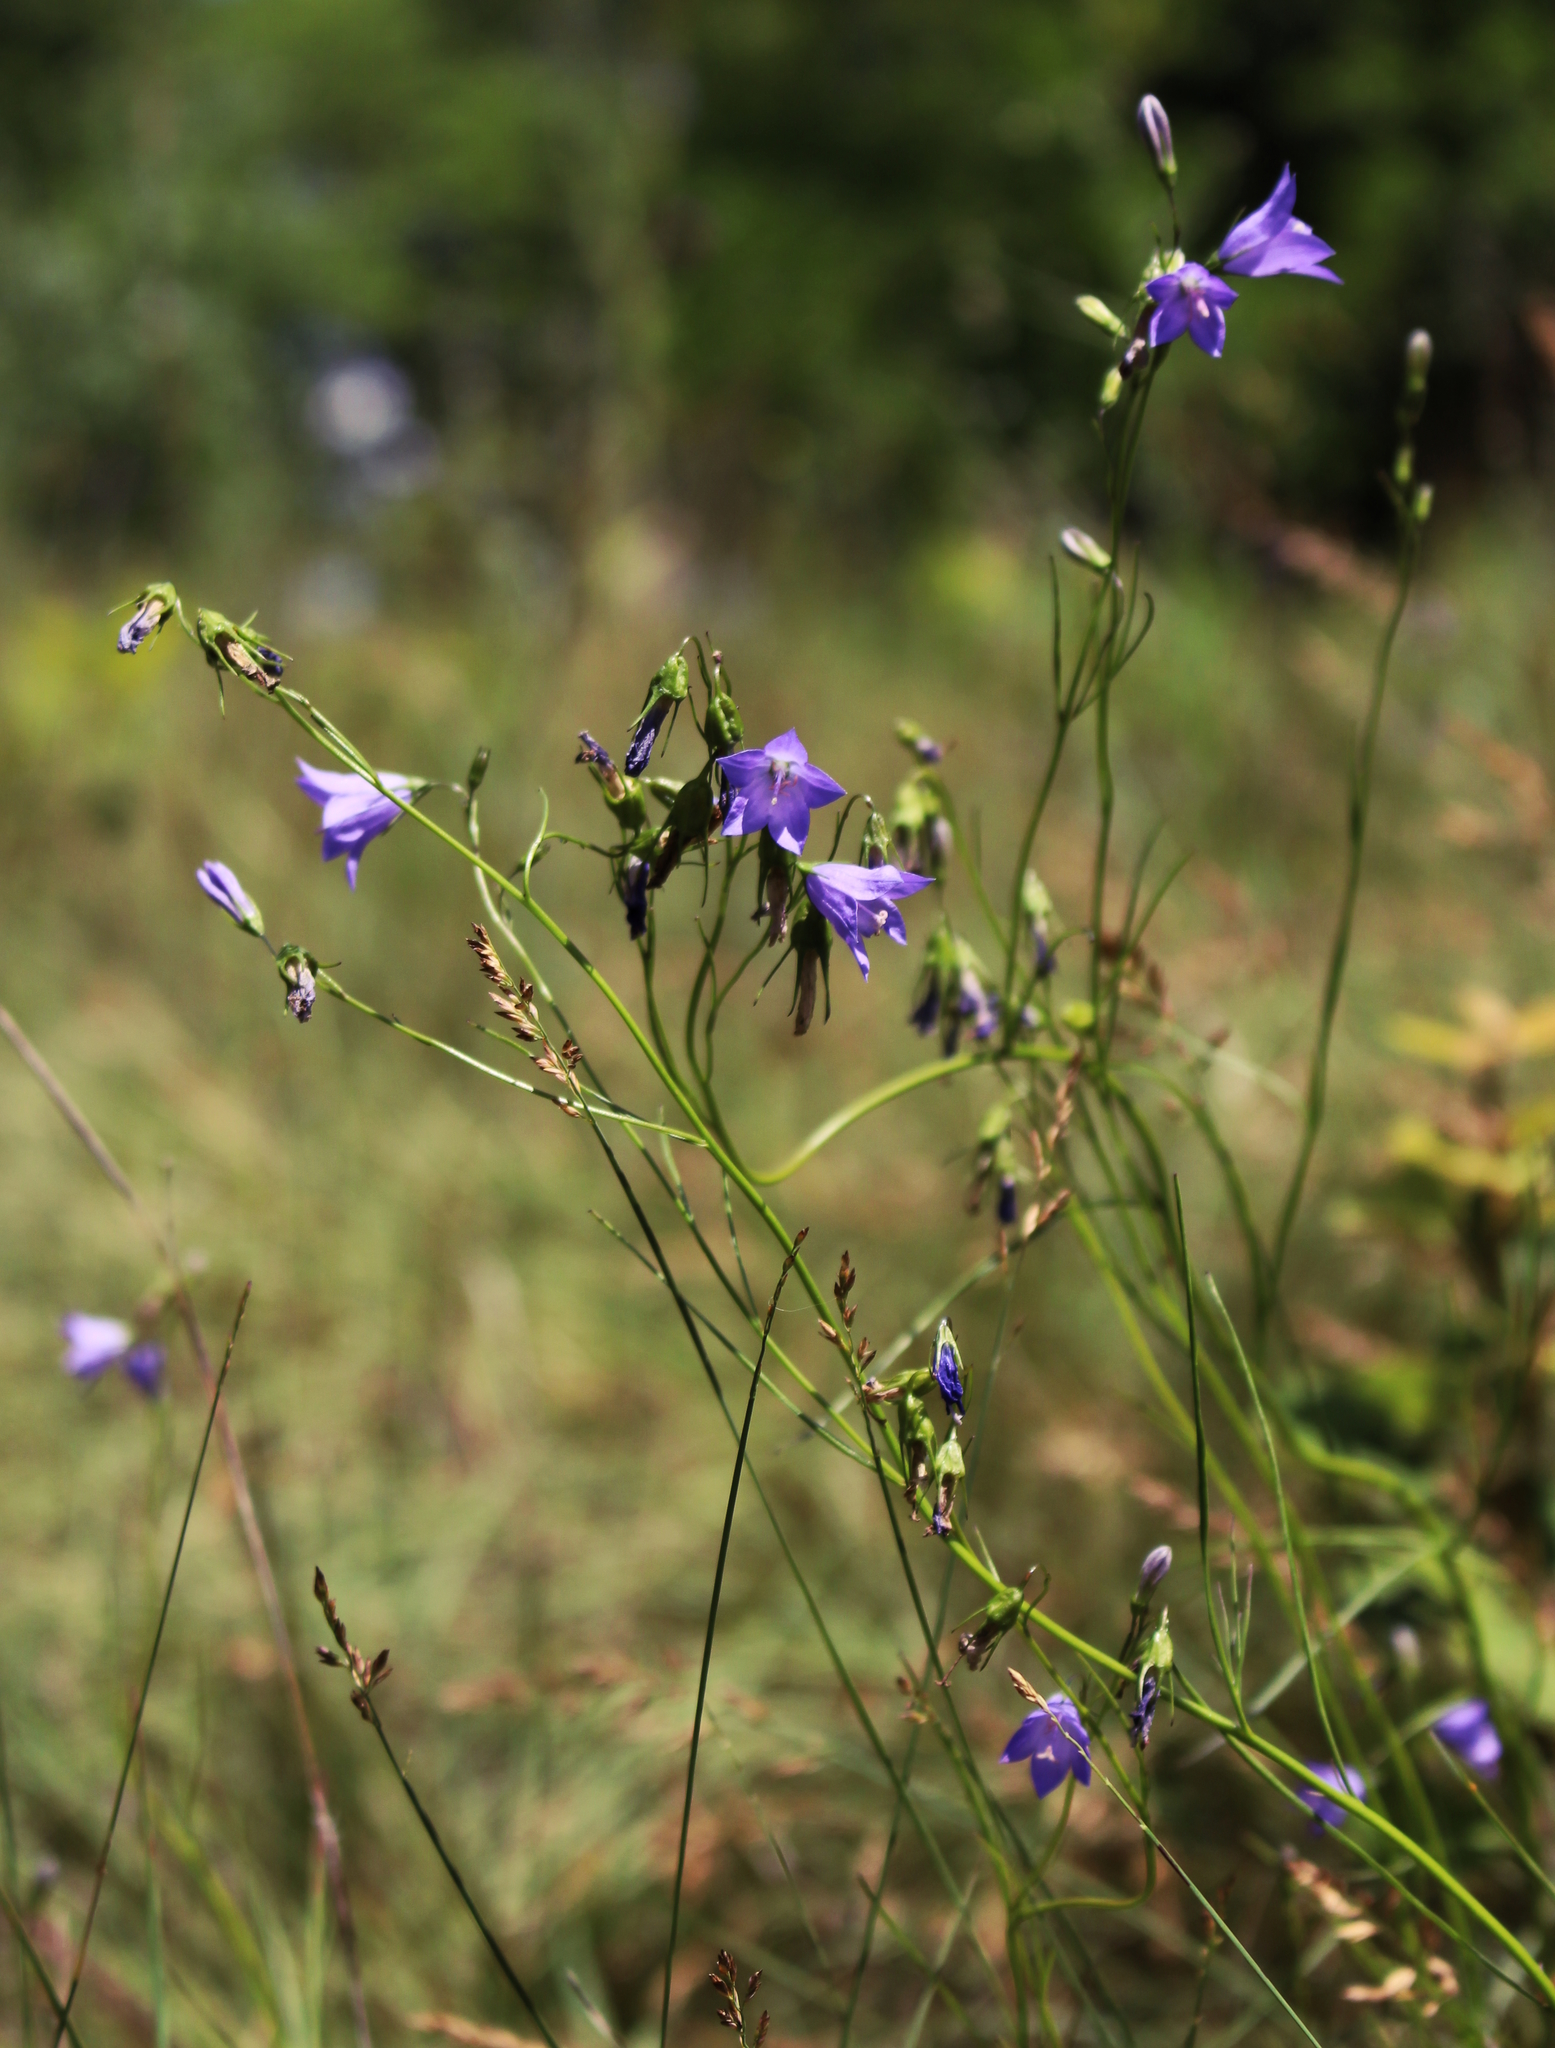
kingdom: Plantae
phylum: Tracheophyta
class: Magnoliopsida
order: Asterales
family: Campanulaceae
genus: Campanula
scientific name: Campanula intercedens
